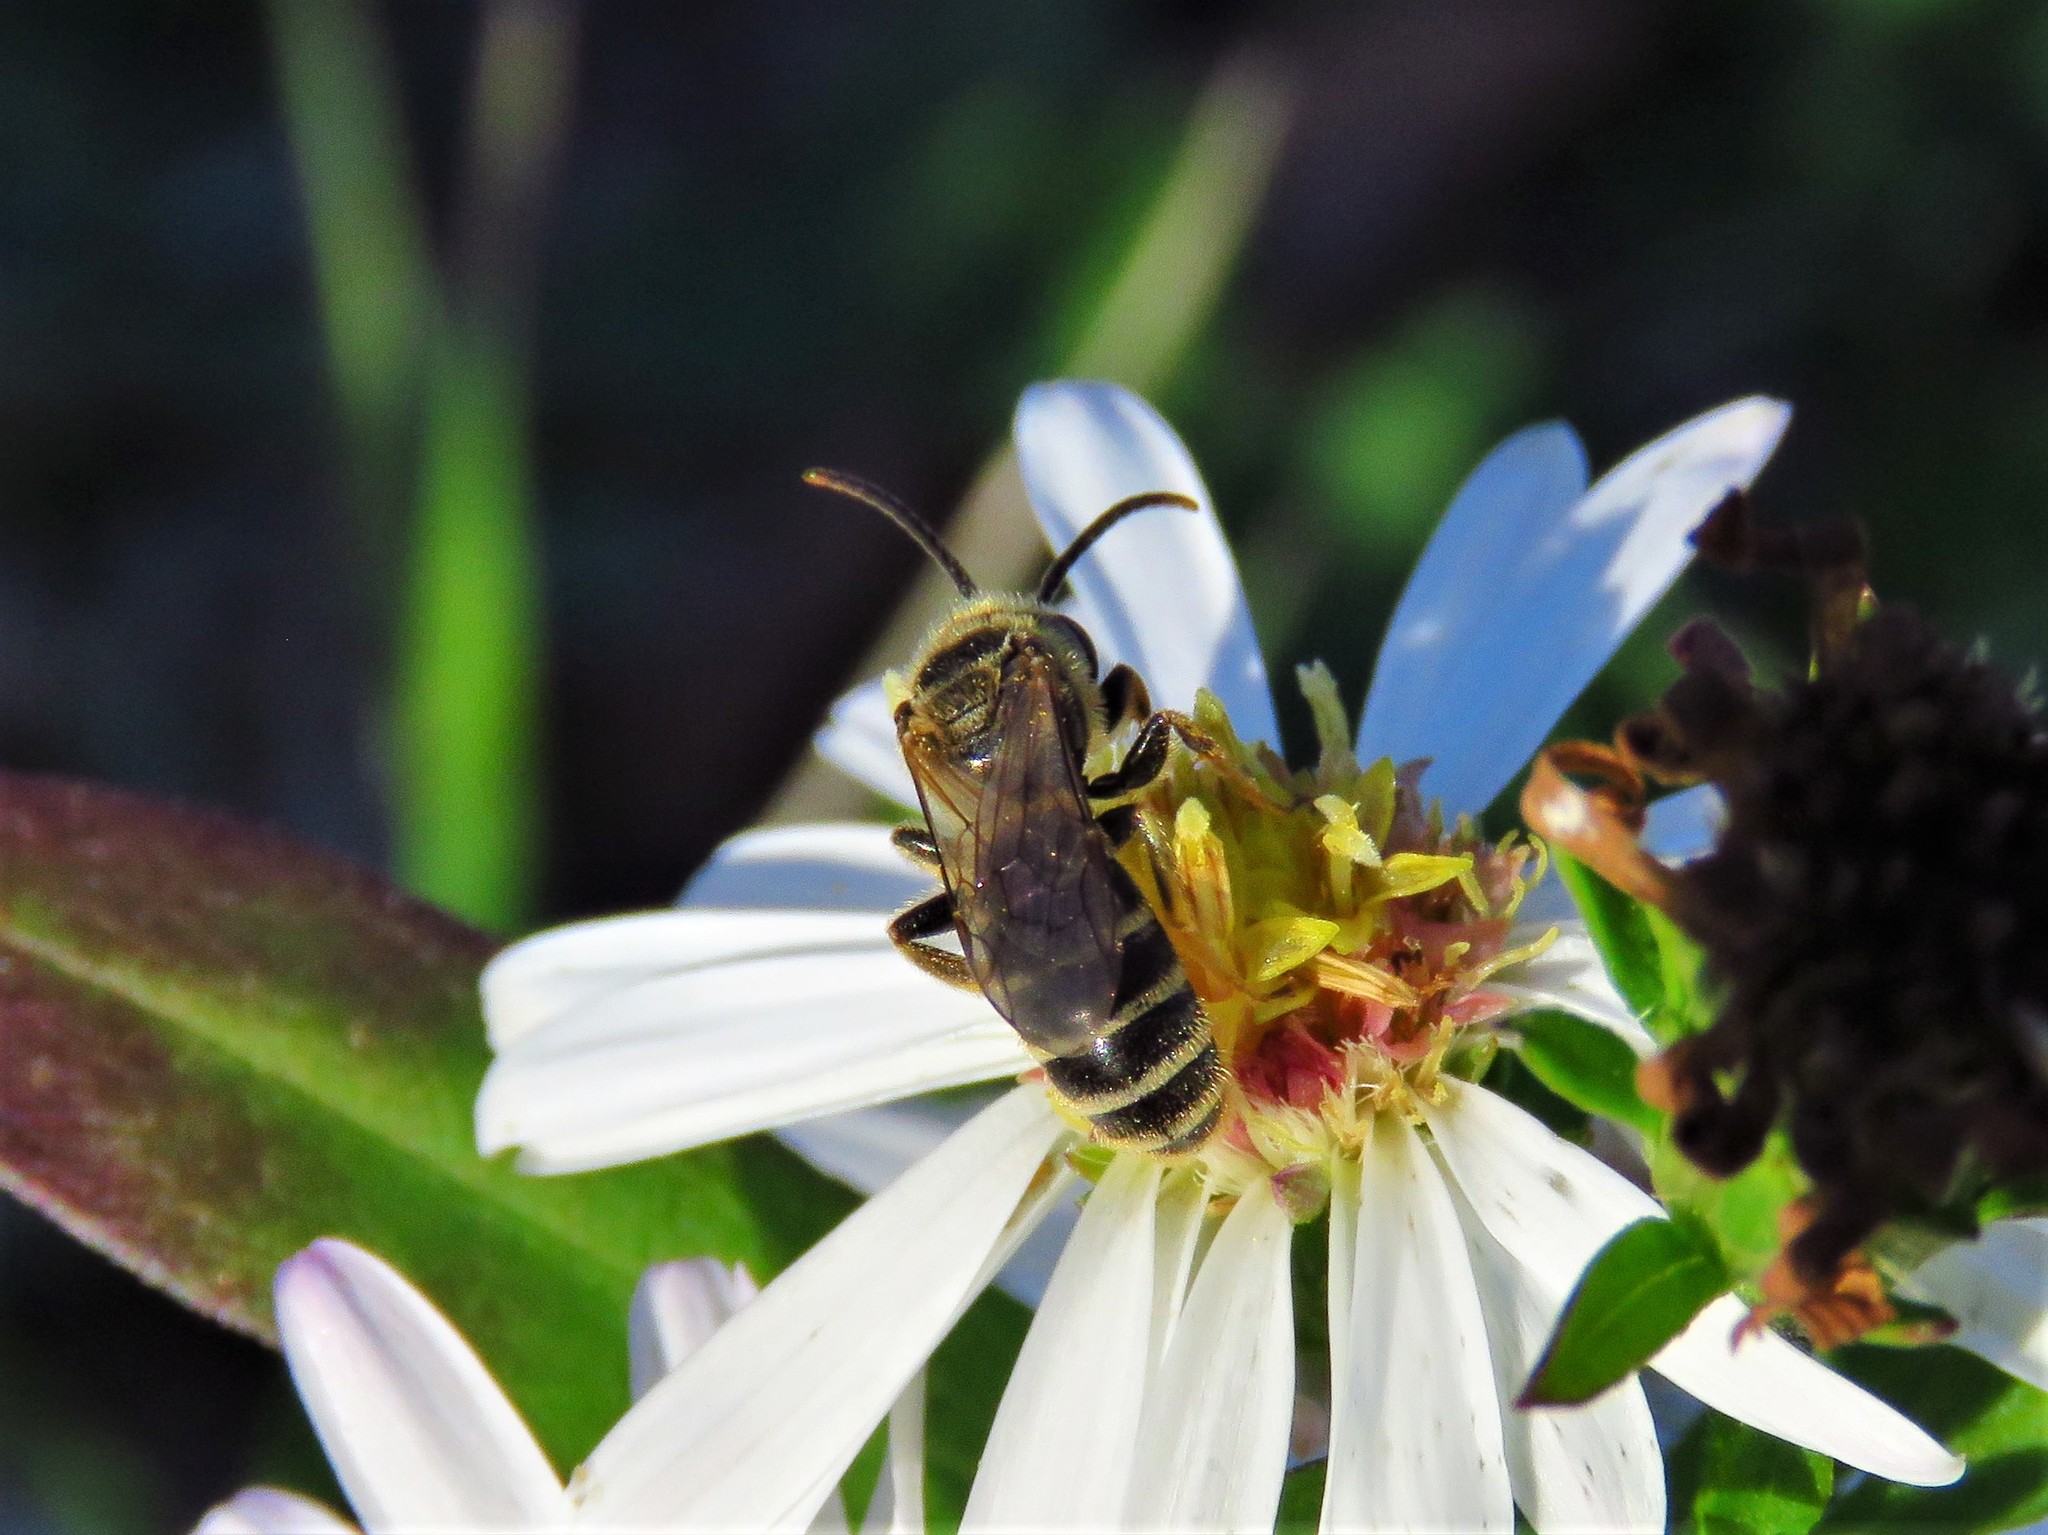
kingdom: Animalia
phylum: Arthropoda
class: Insecta
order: Hymenoptera
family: Halictidae
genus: Halictus
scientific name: Halictus ligatus
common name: Ligated furrow bee
